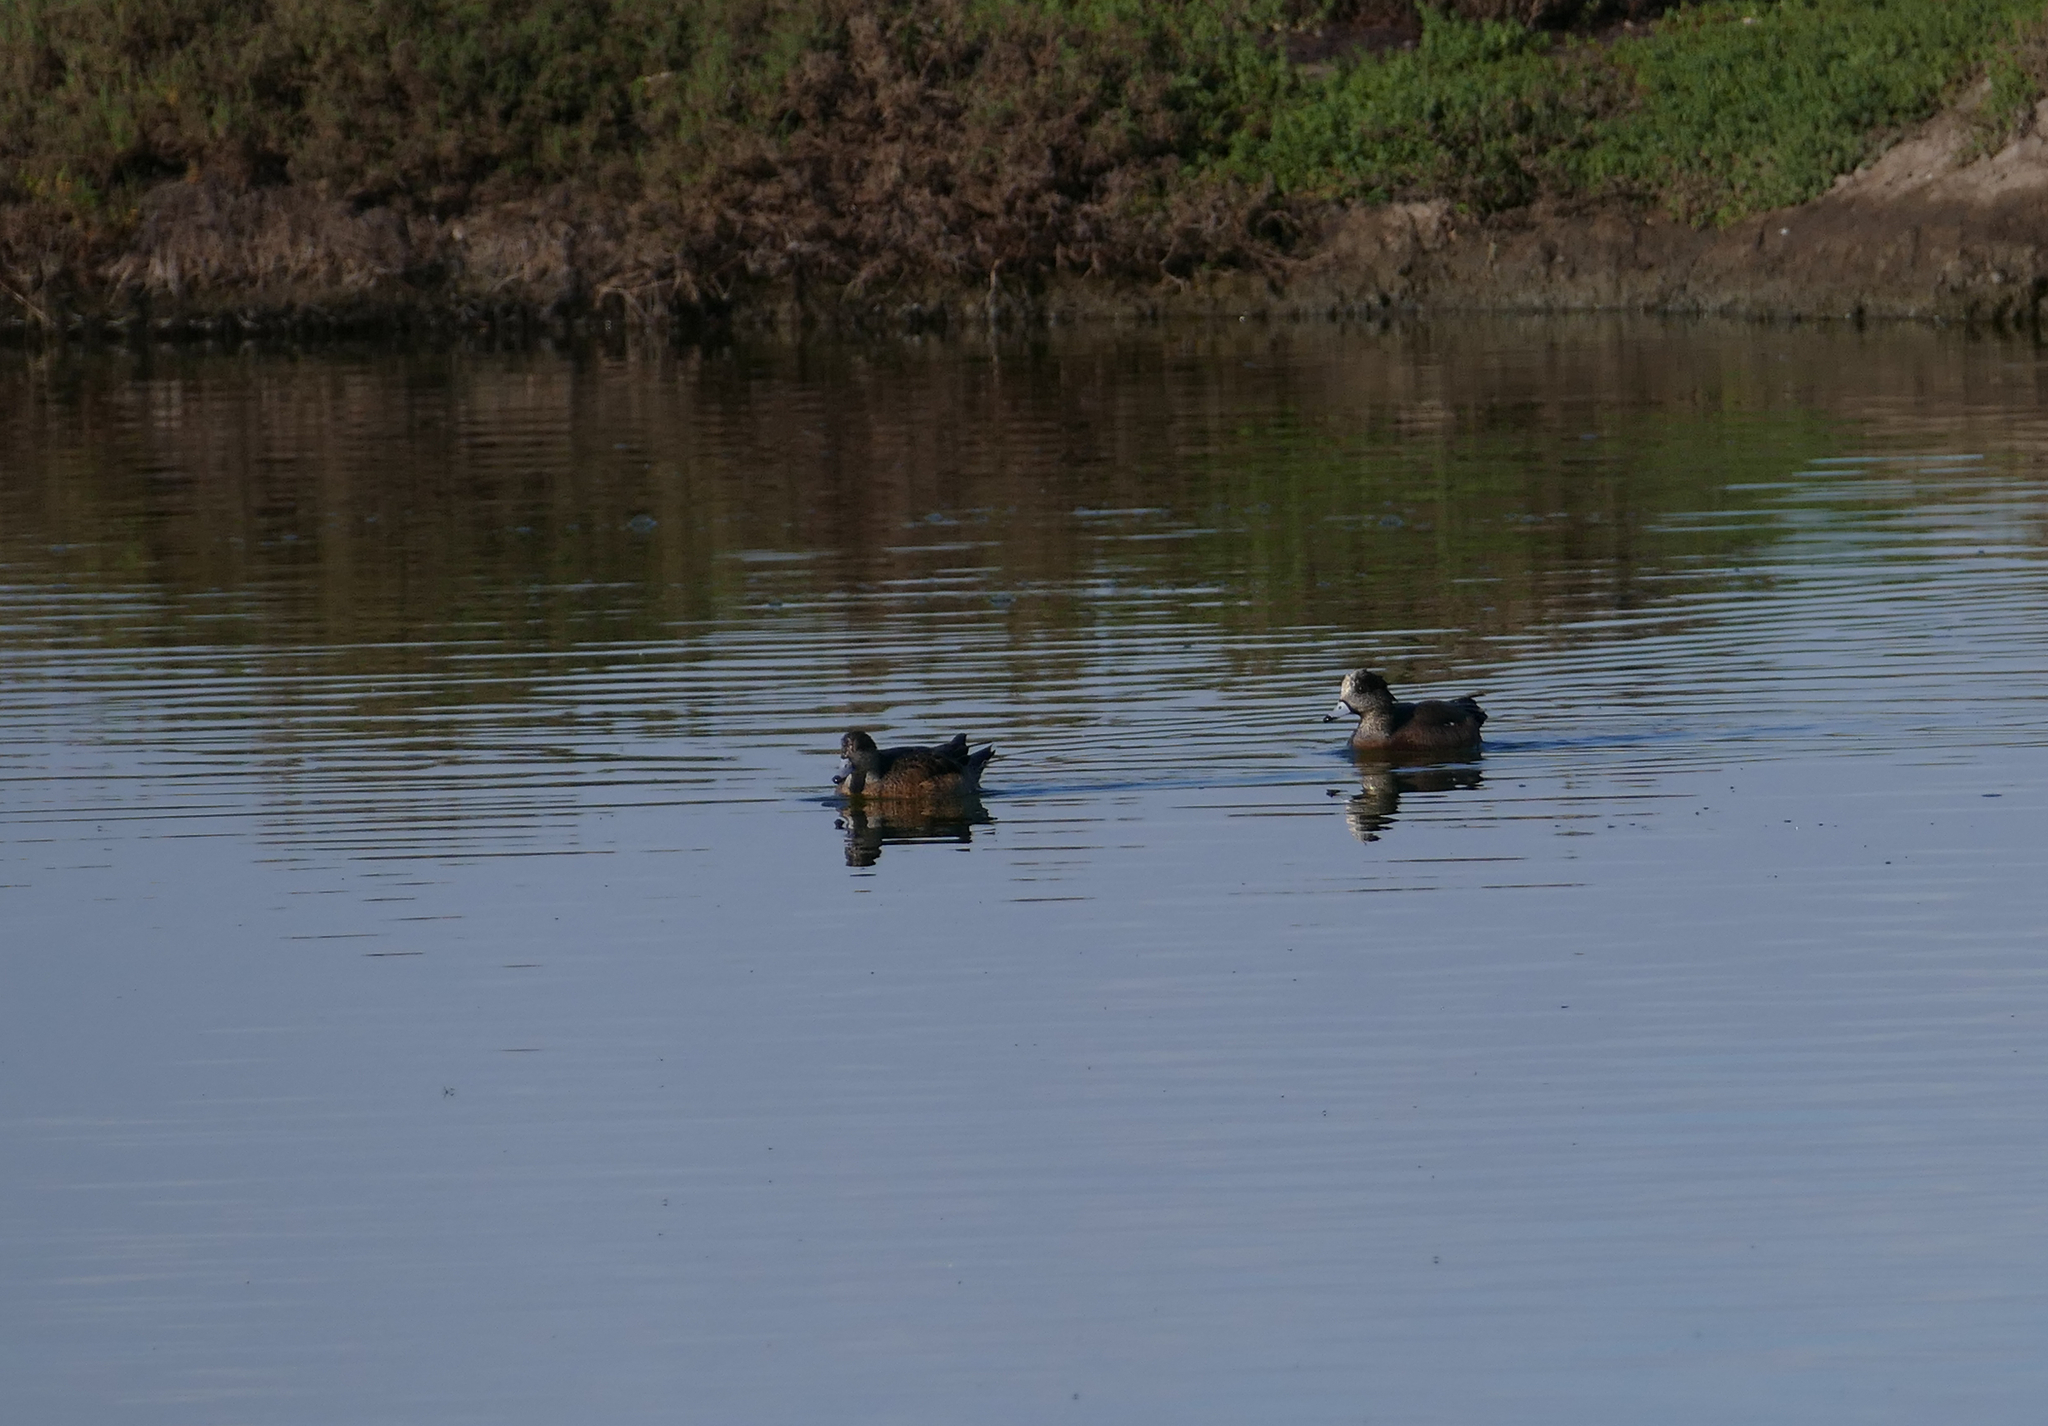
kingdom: Animalia
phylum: Chordata
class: Aves
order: Anseriformes
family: Anatidae
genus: Mareca
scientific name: Mareca americana
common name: American wigeon
